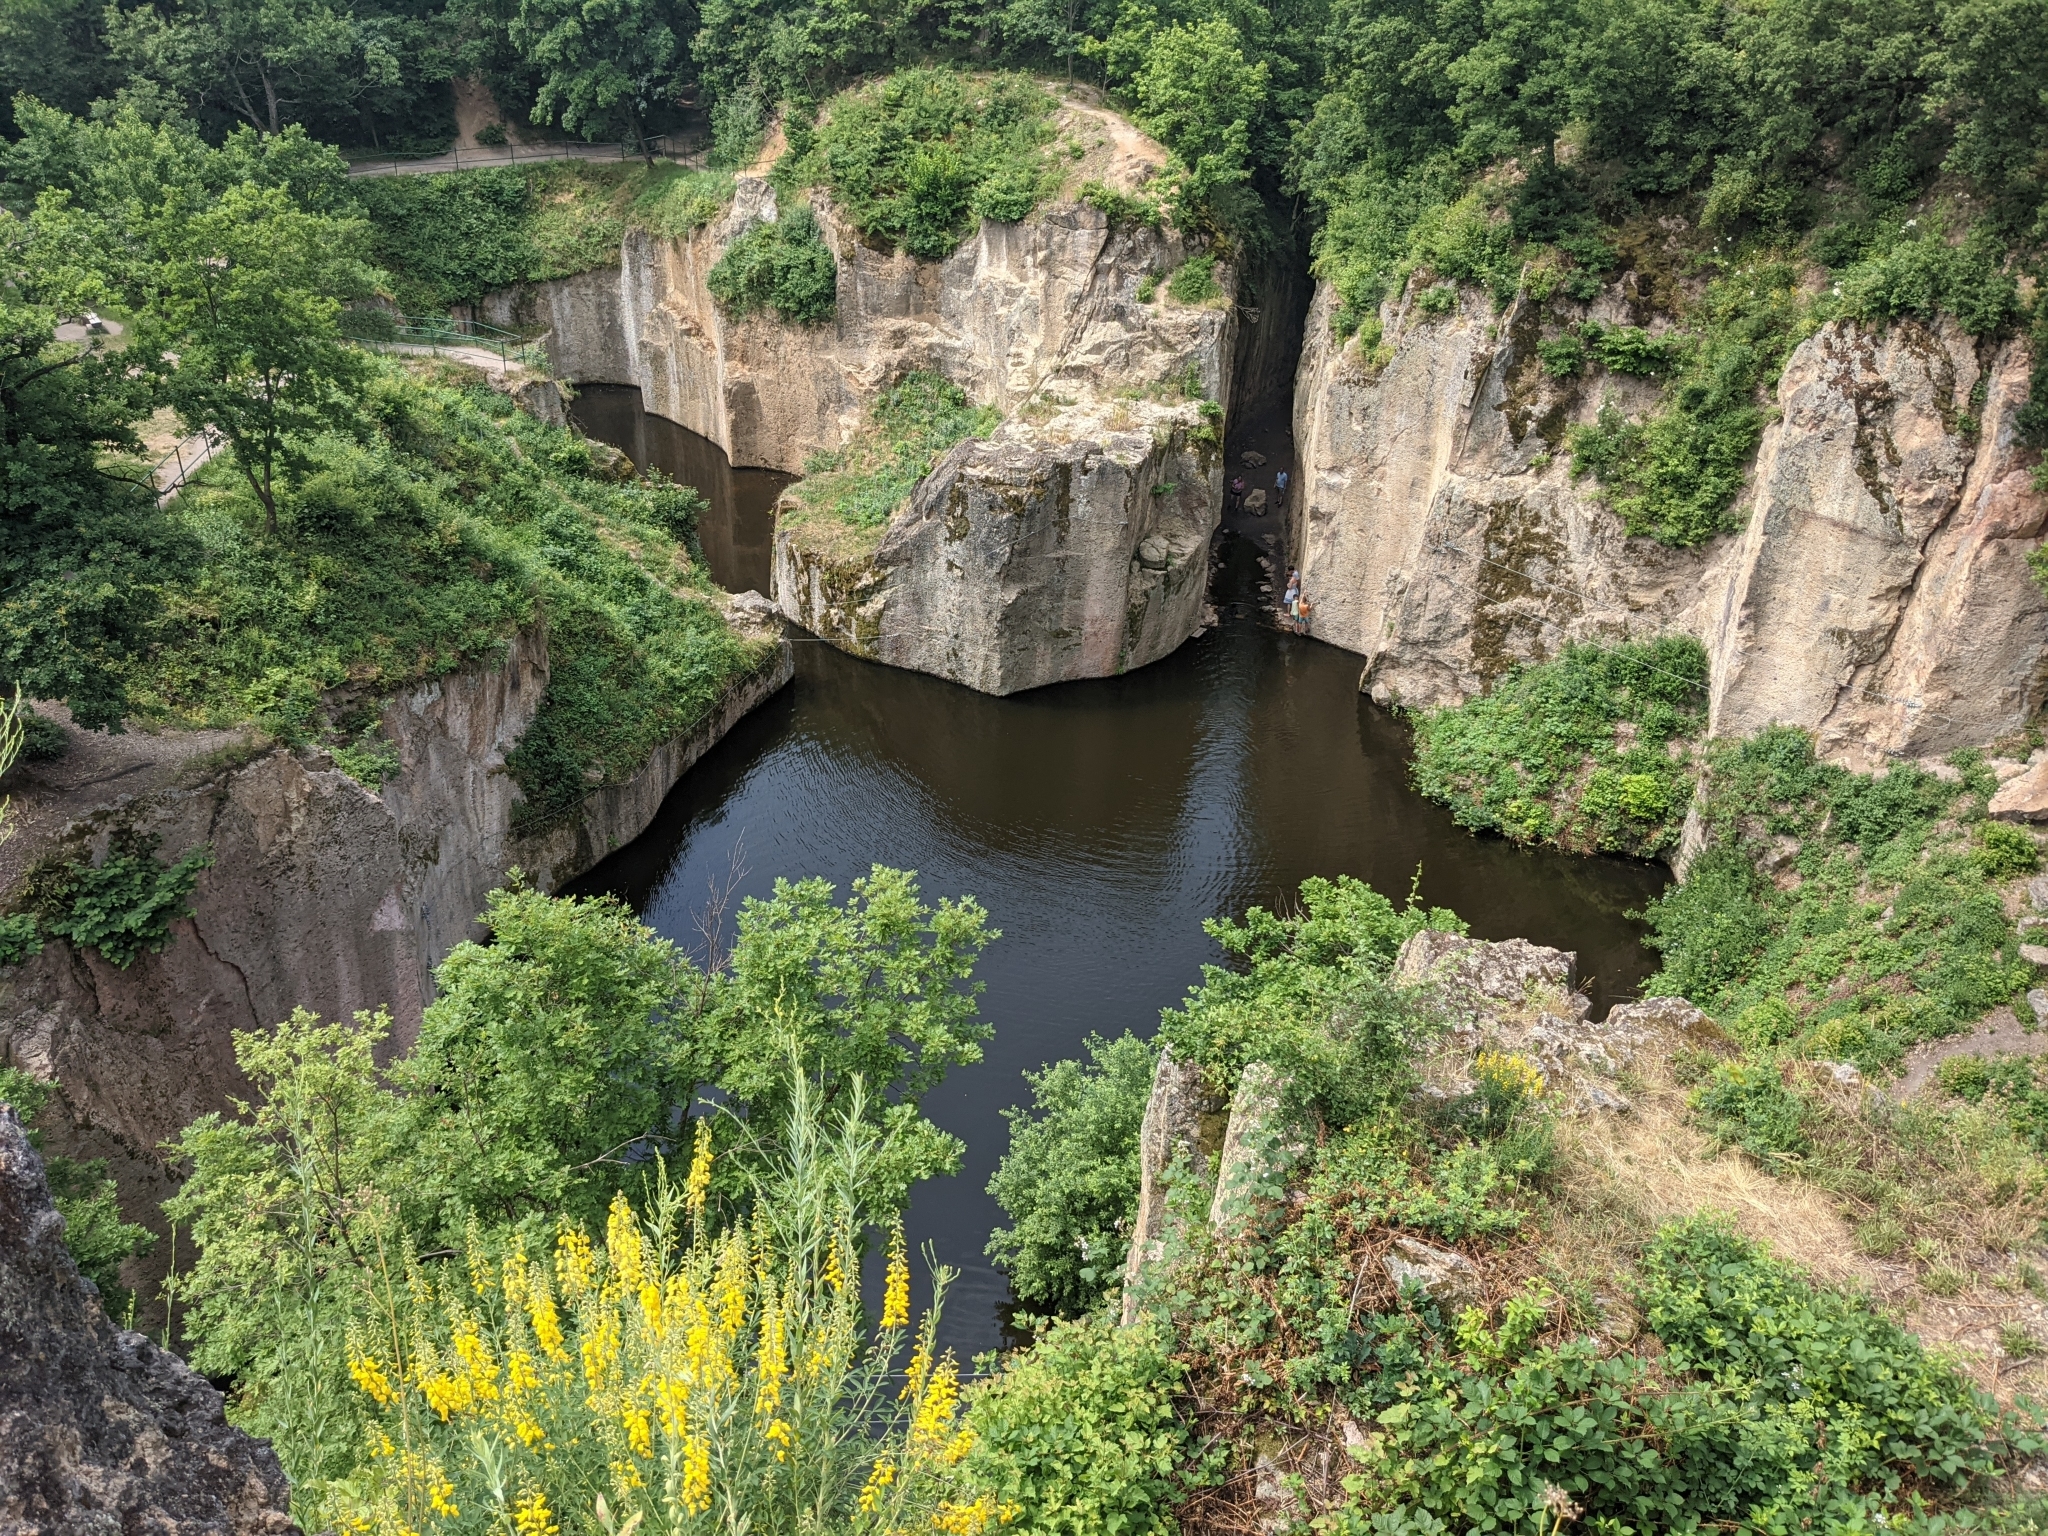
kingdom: Plantae
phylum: Tracheophyta
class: Magnoliopsida
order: Fabales
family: Fabaceae
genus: Cytisus
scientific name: Cytisus nigricans
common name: Black broom
